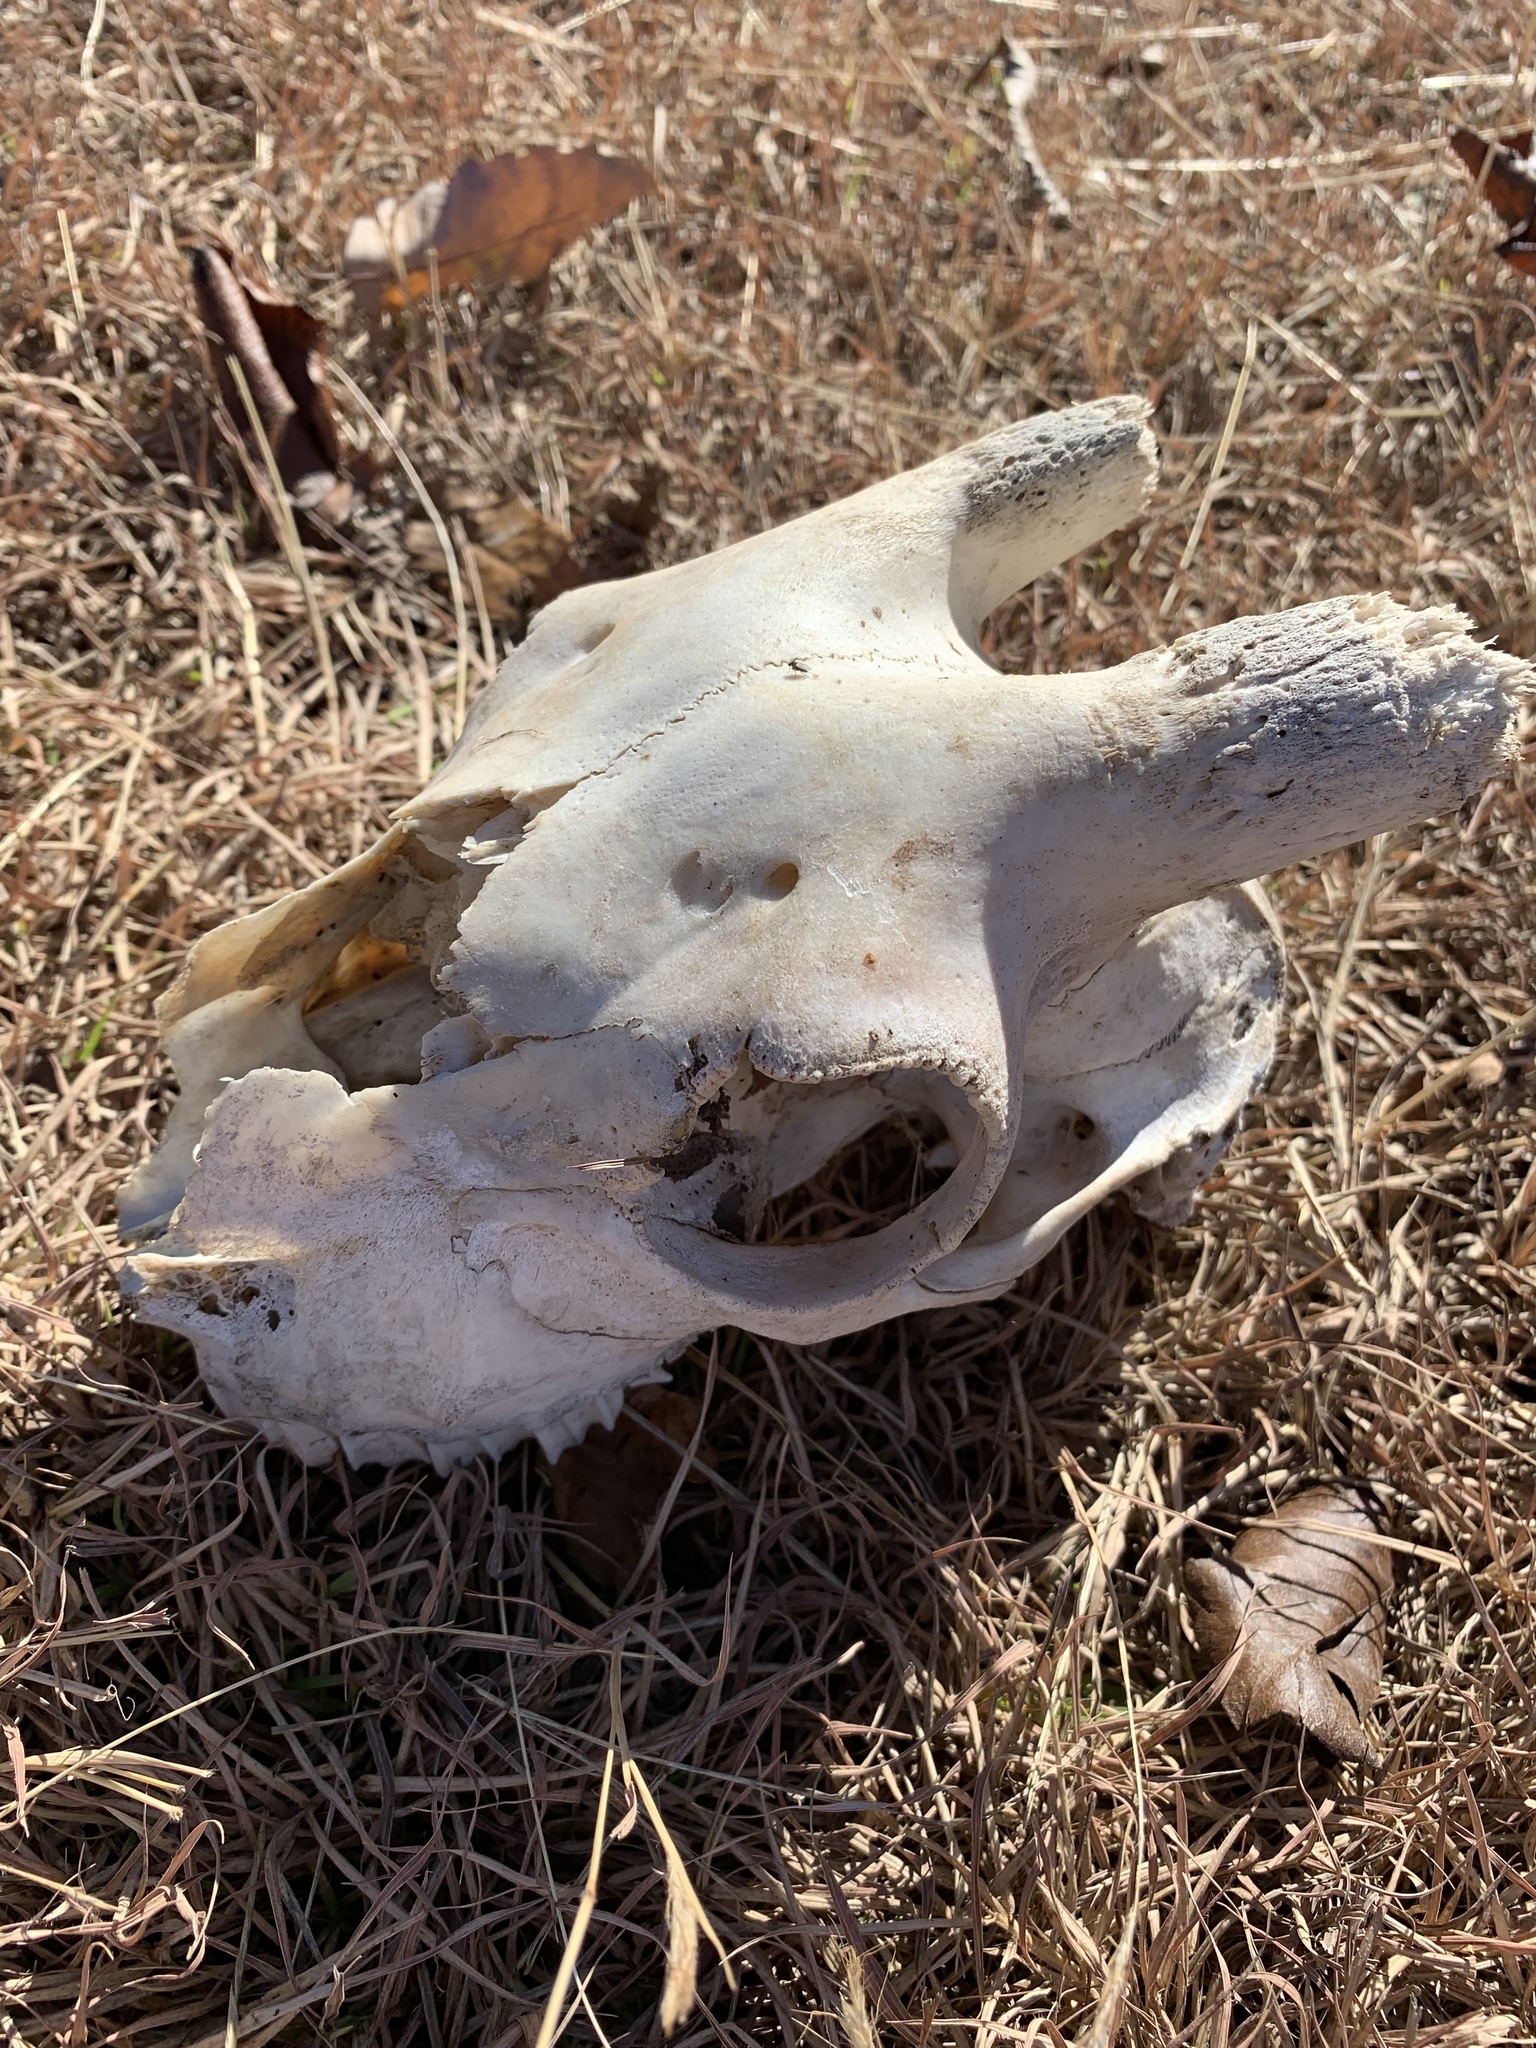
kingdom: Animalia
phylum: Chordata
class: Mammalia
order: Artiodactyla
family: Bovidae
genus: Capra
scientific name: Capra hircus
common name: Domestic goat
